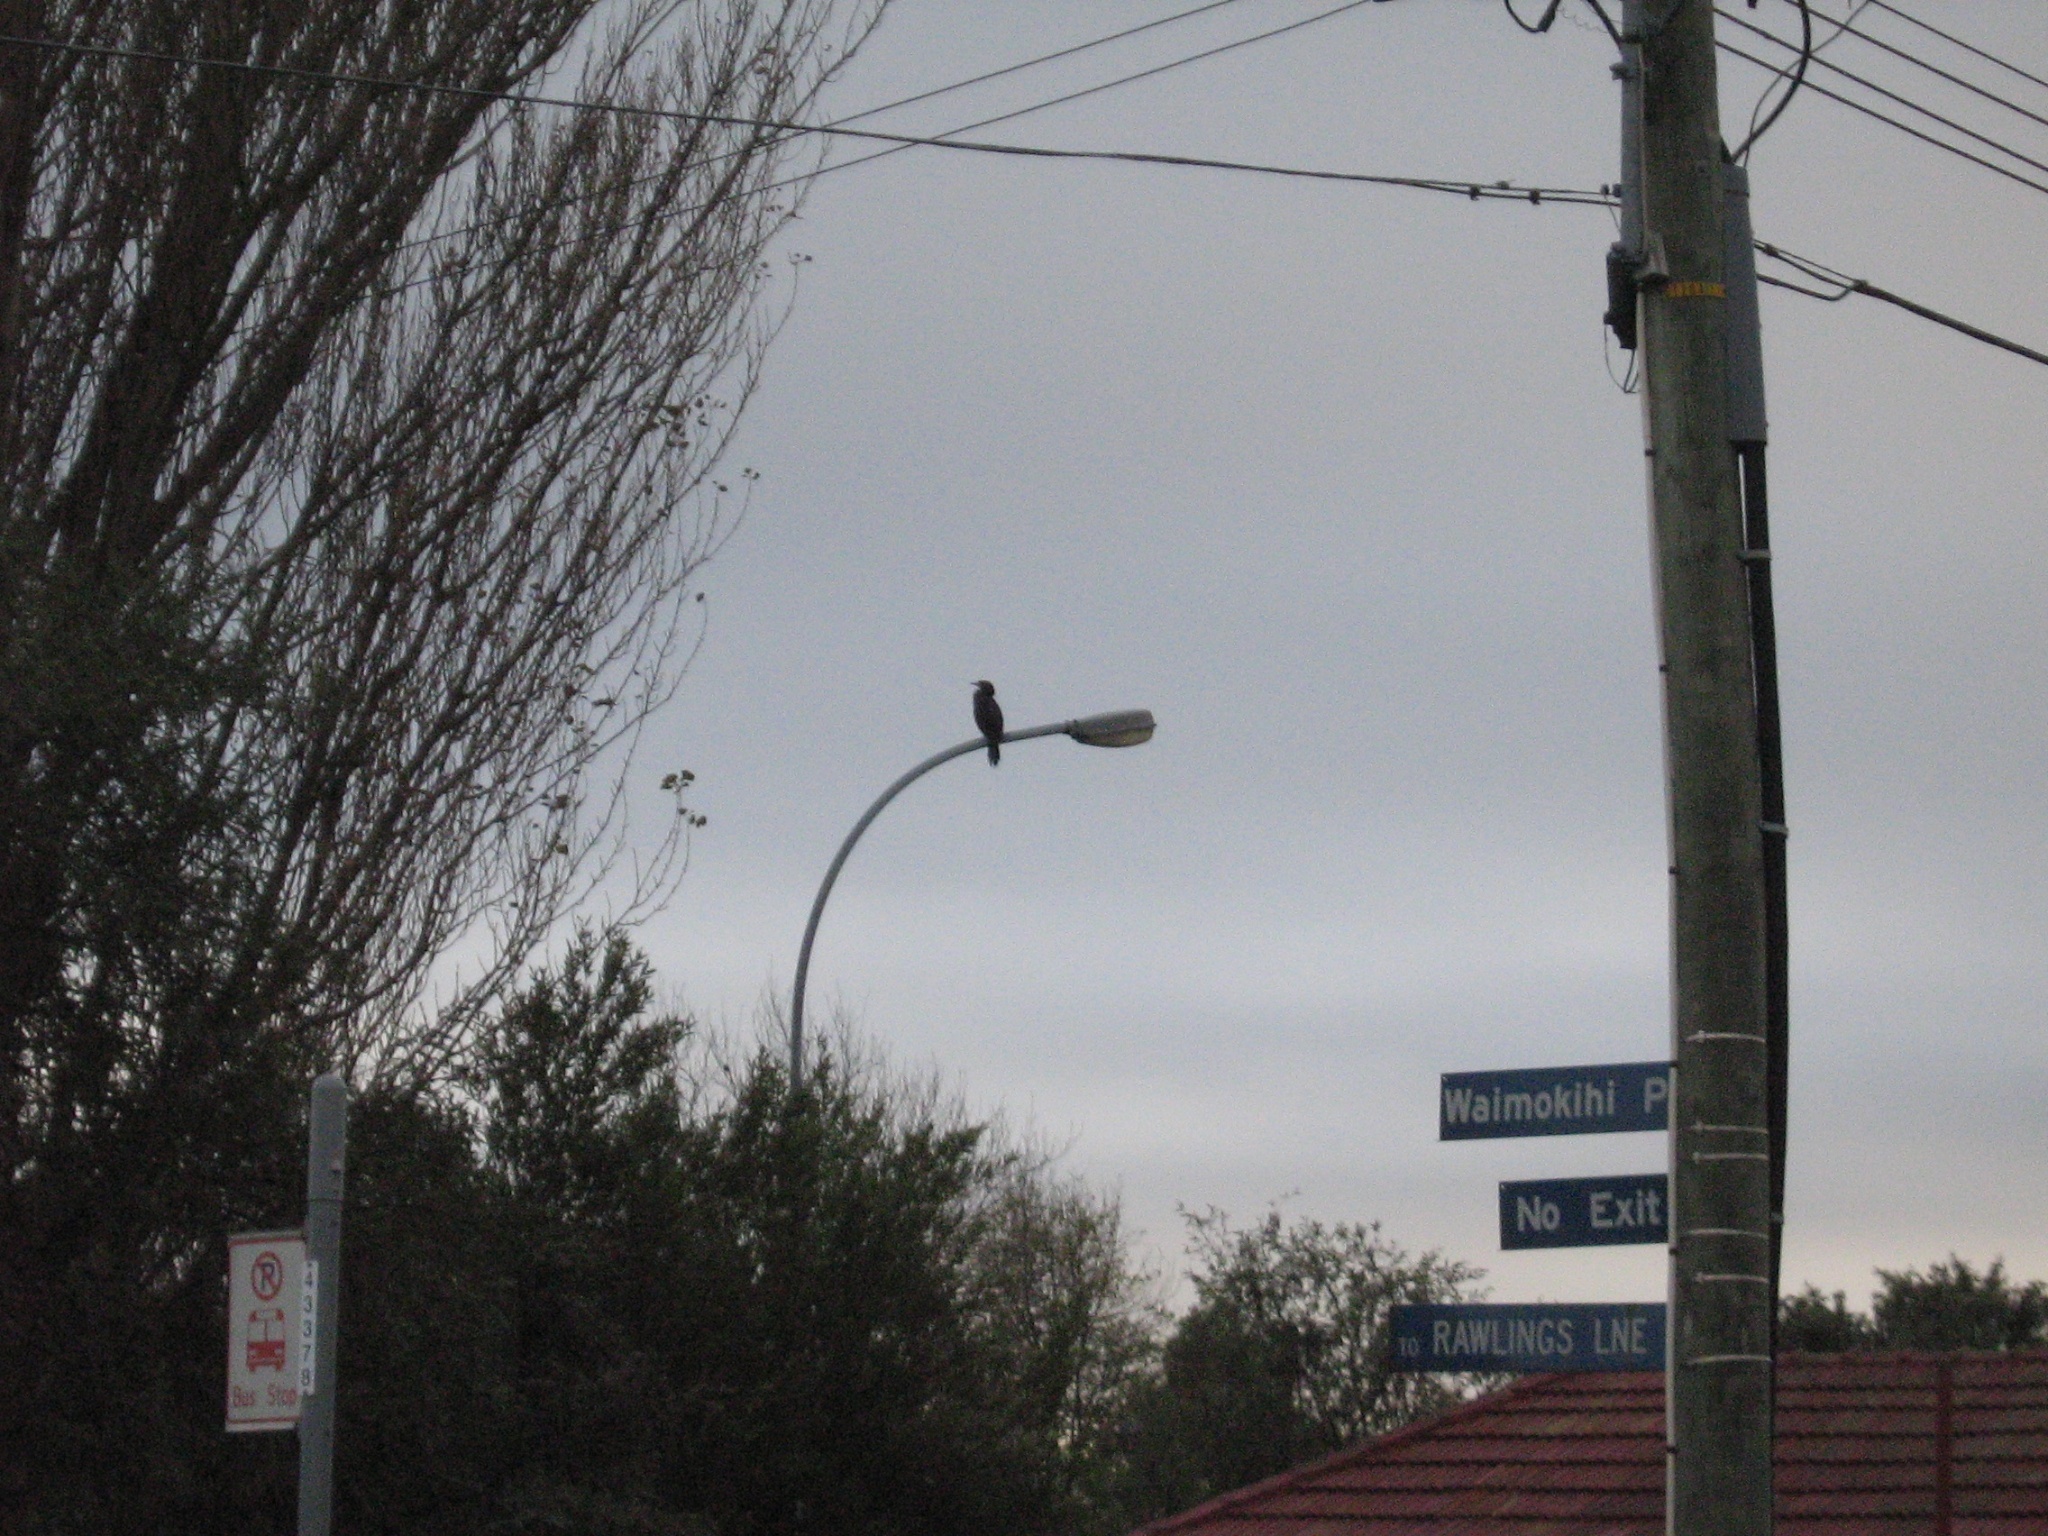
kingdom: Animalia
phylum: Chordata
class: Aves
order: Suliformes
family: Phalacrocoracidae
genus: Microcarbo
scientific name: Microcarbo melanoleucos
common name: Little pied cormorant
